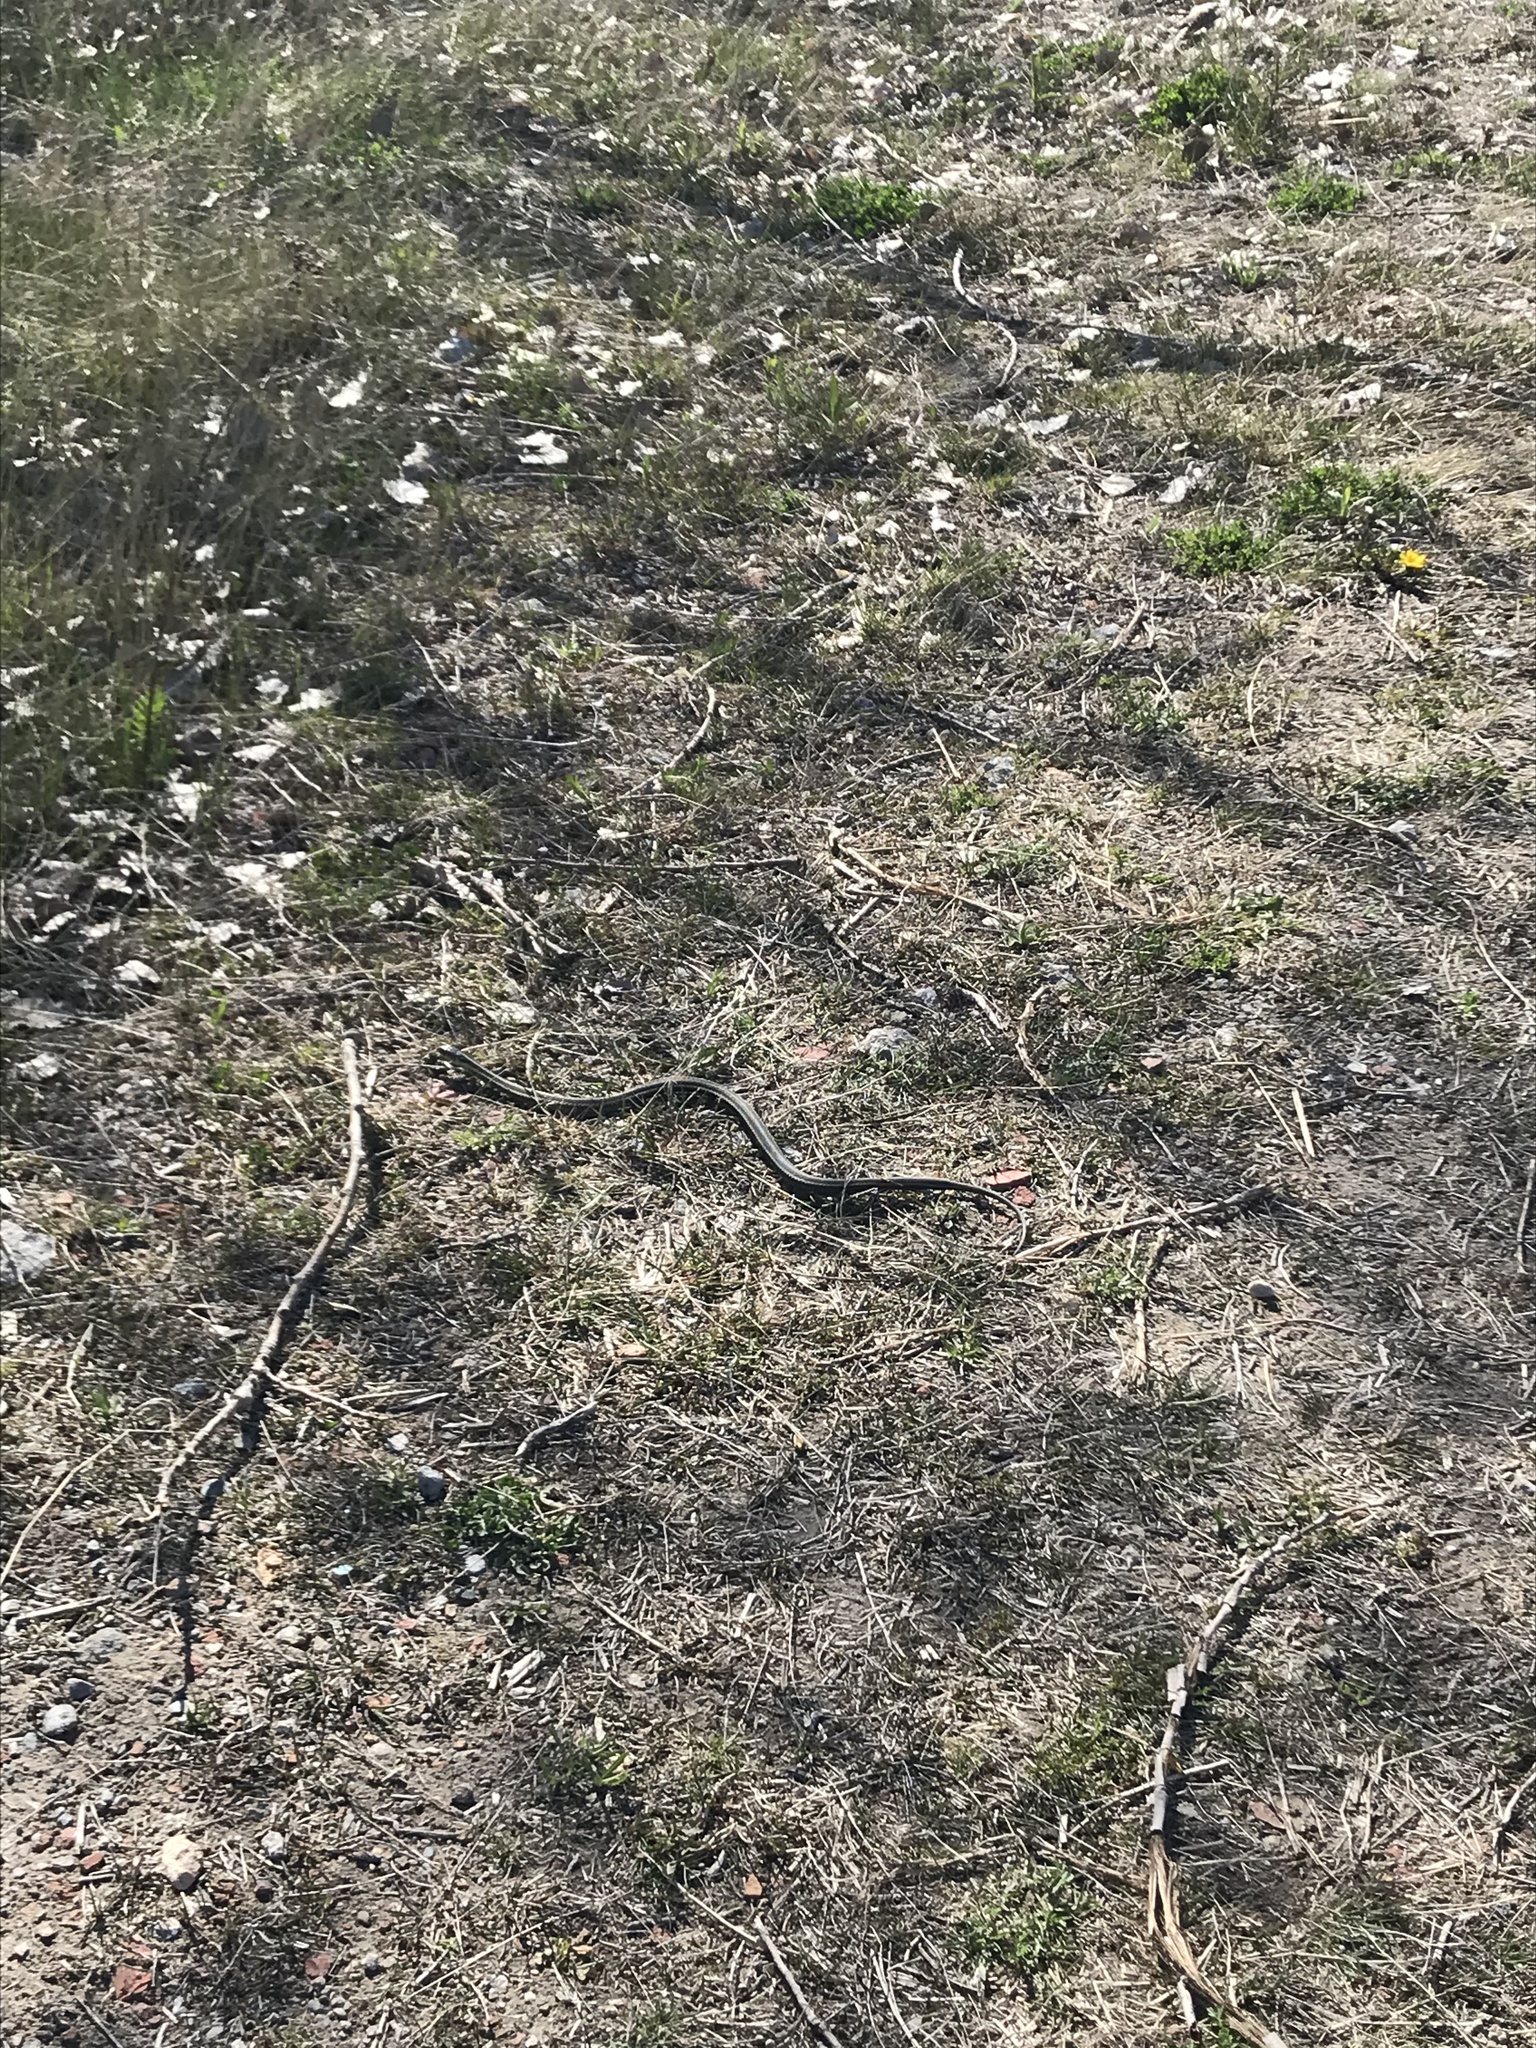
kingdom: Animalia
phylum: Chordata
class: Squamata
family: Colubridae
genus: Thamnophis
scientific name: Thamnophis sirtalis
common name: Common garter snake
